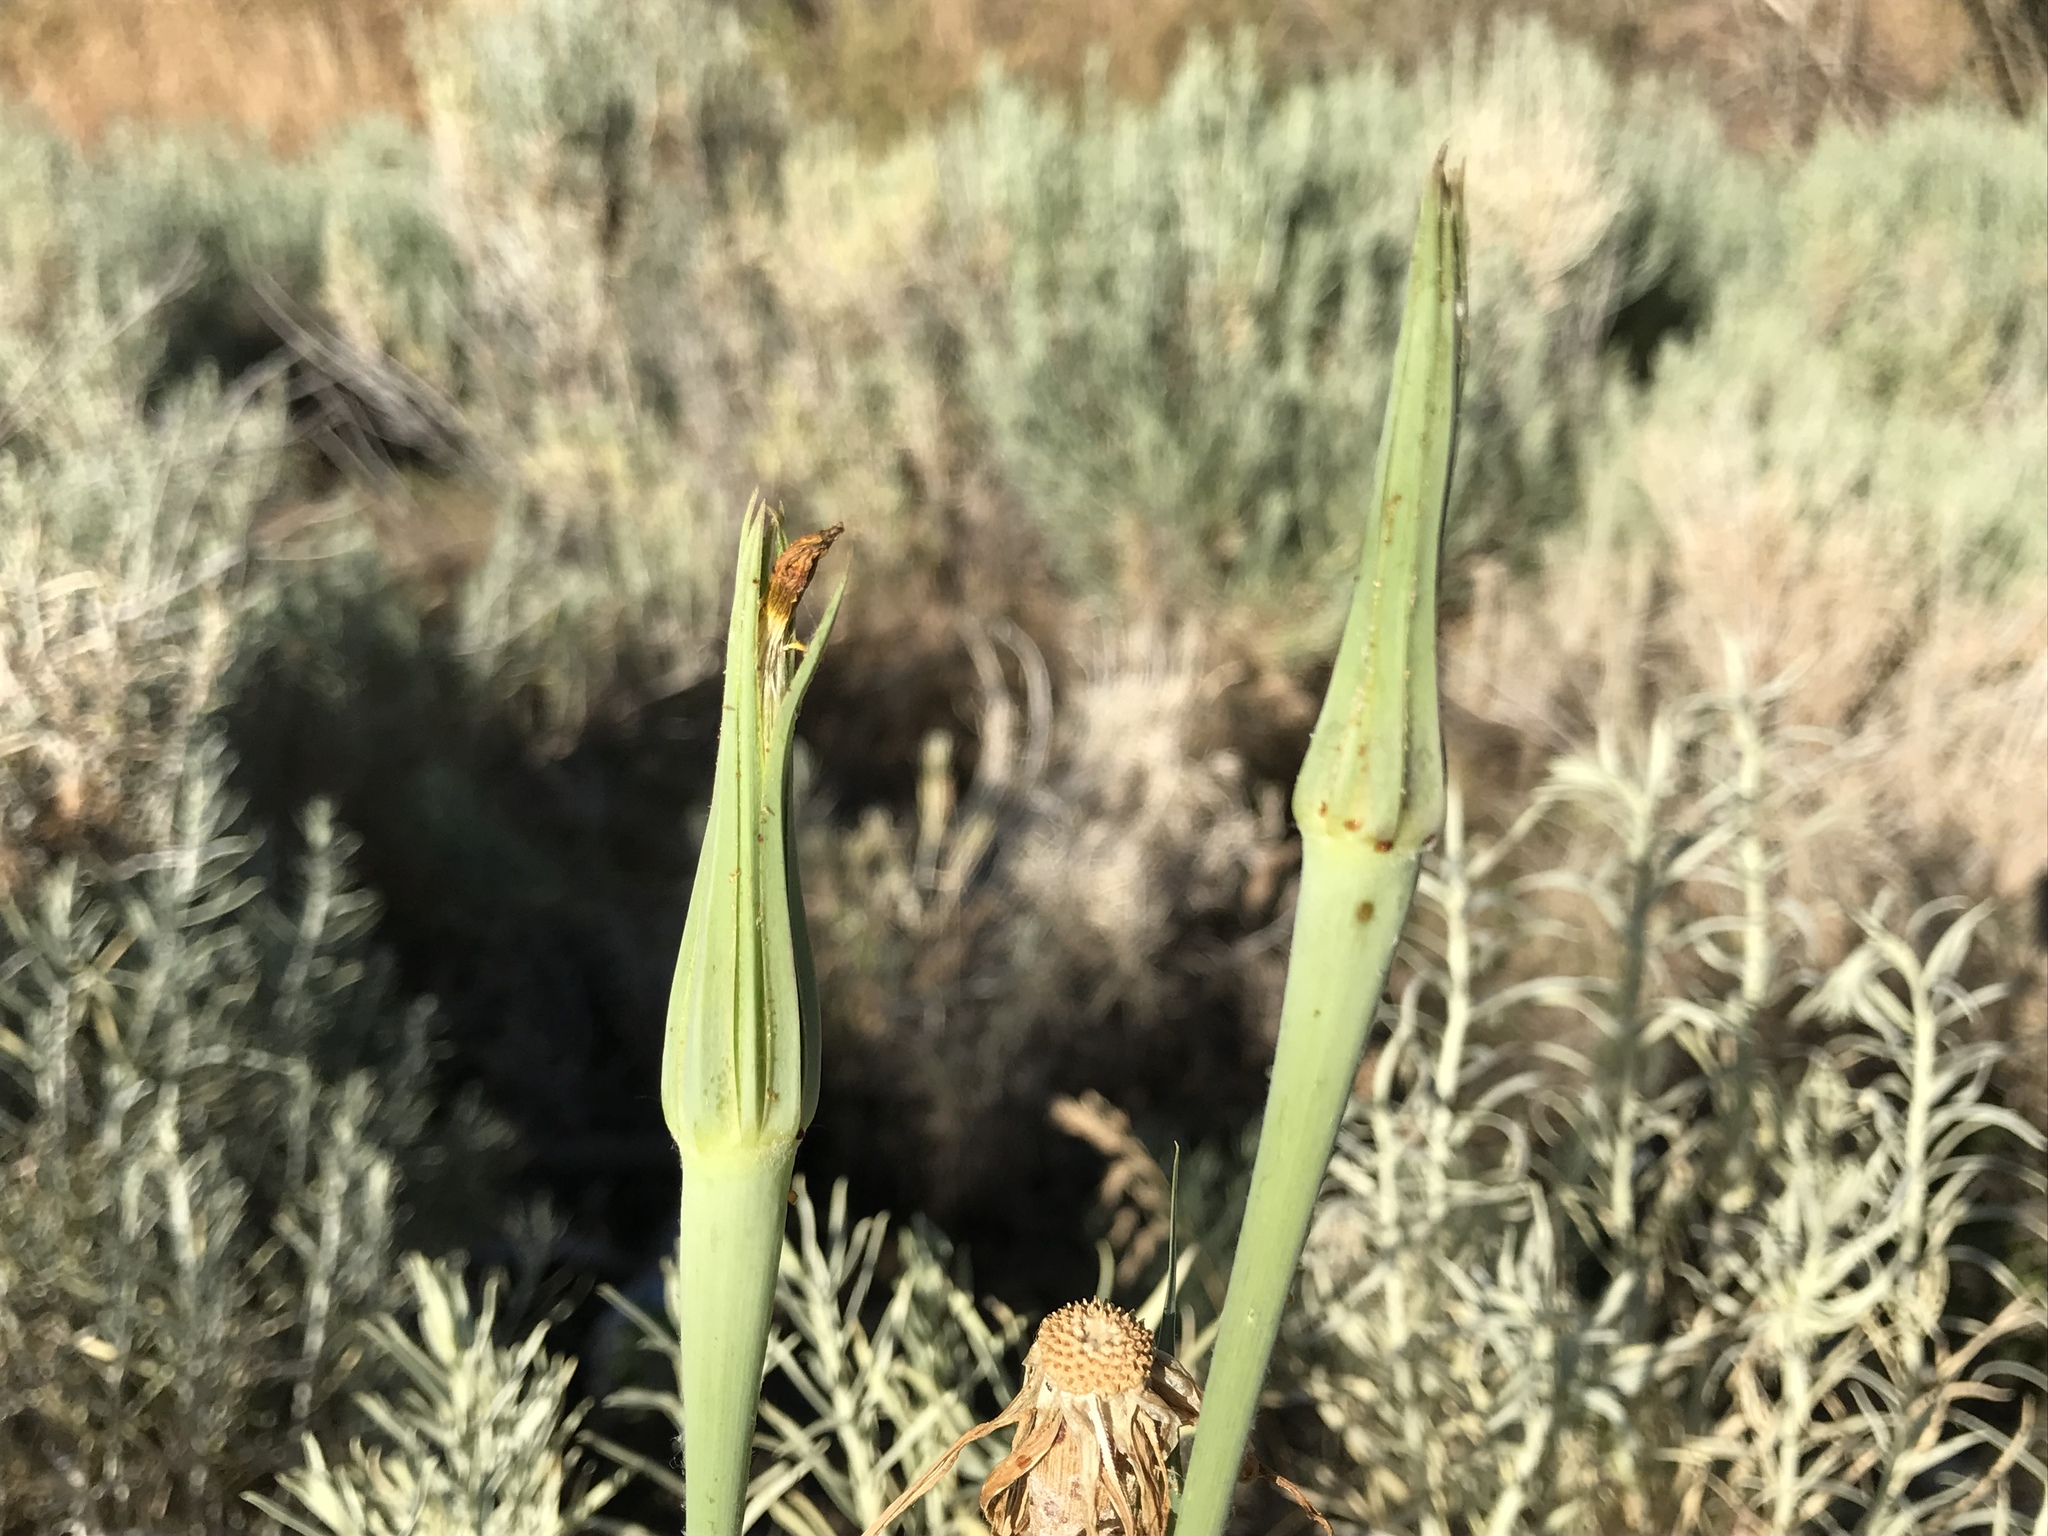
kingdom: Plantae
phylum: Tracheophyta
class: Magnoliopsida
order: Asterales
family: Asteraceae
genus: Tragopogon
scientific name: Tragopogon dubius
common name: Yellow salsify
